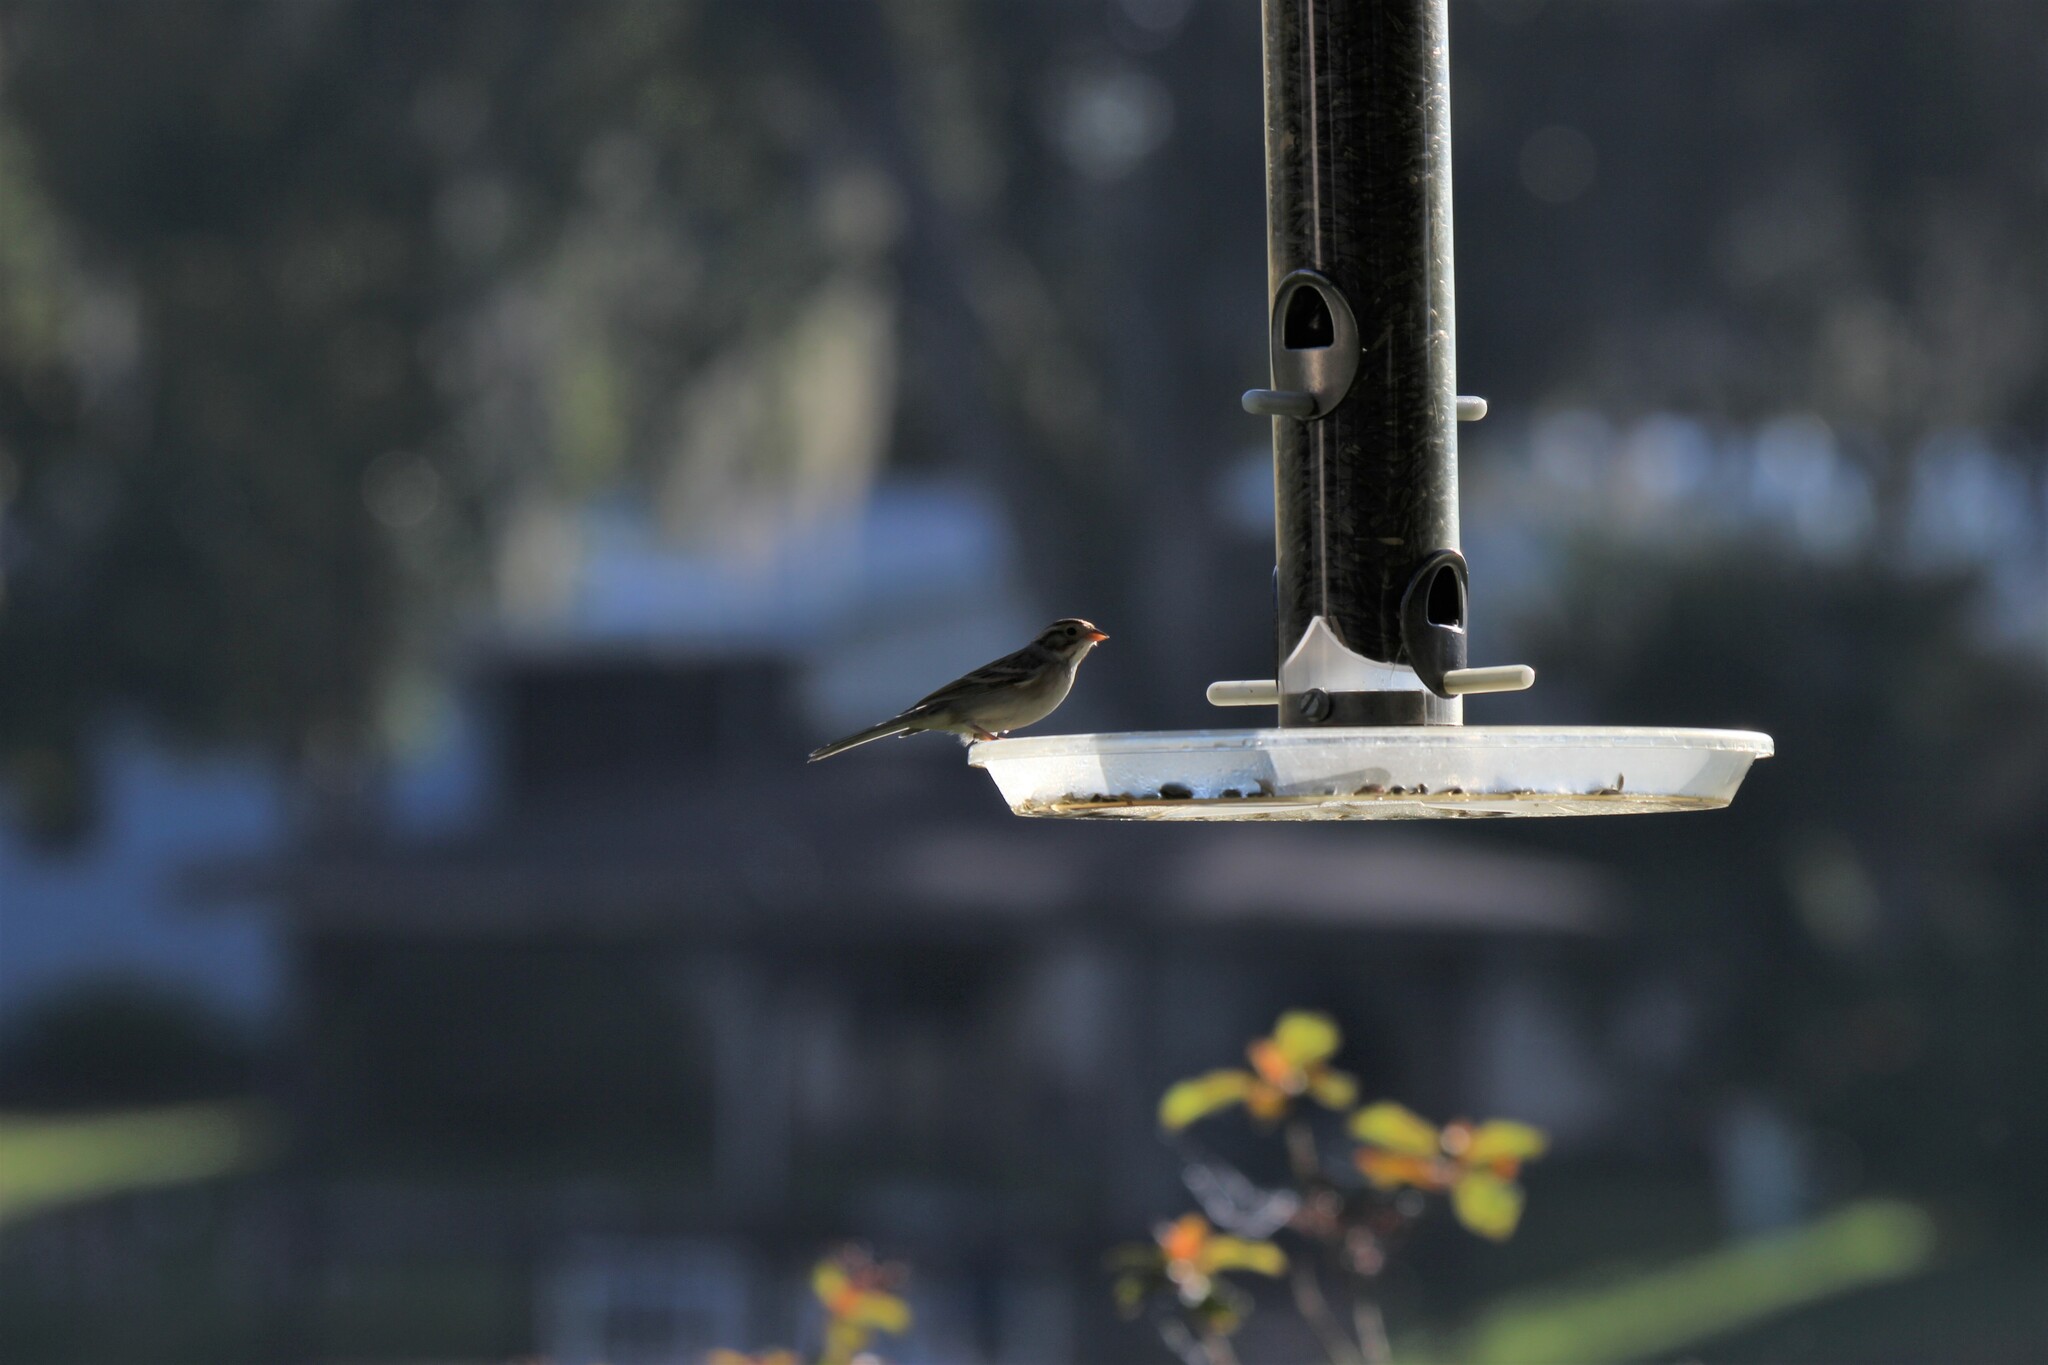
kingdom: Animalia
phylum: Chordata
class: Aves
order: Passeriformes
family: Passerellidae
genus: Spizella
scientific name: Spizella pallida
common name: Clay-colored sparrow
